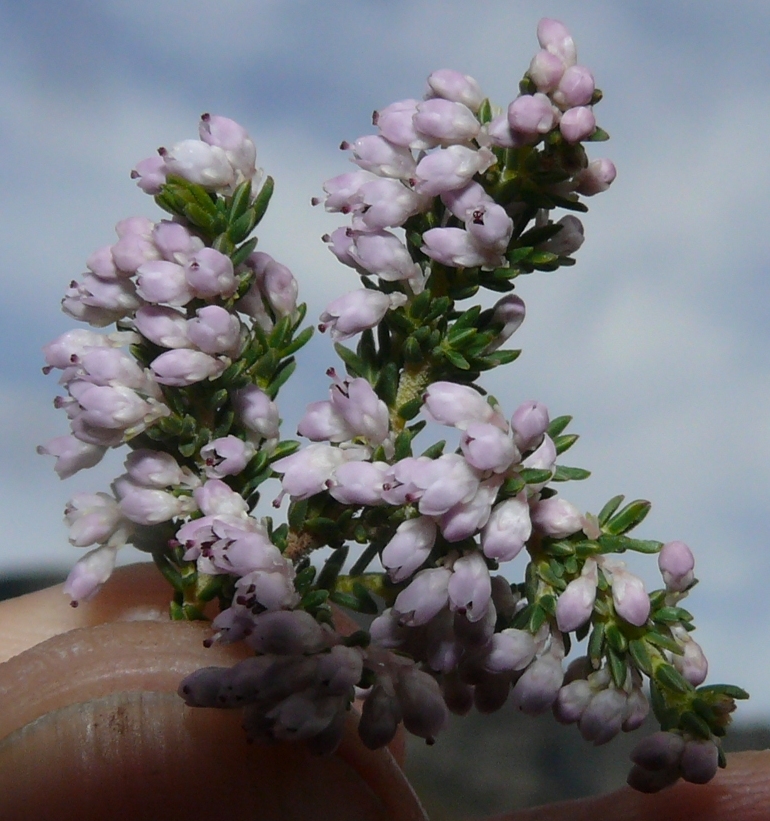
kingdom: Plantae
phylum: Tracheophyta
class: Magnoliopsida
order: Ericales
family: Ericaceae
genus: Erica
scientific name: Erica paniculata
